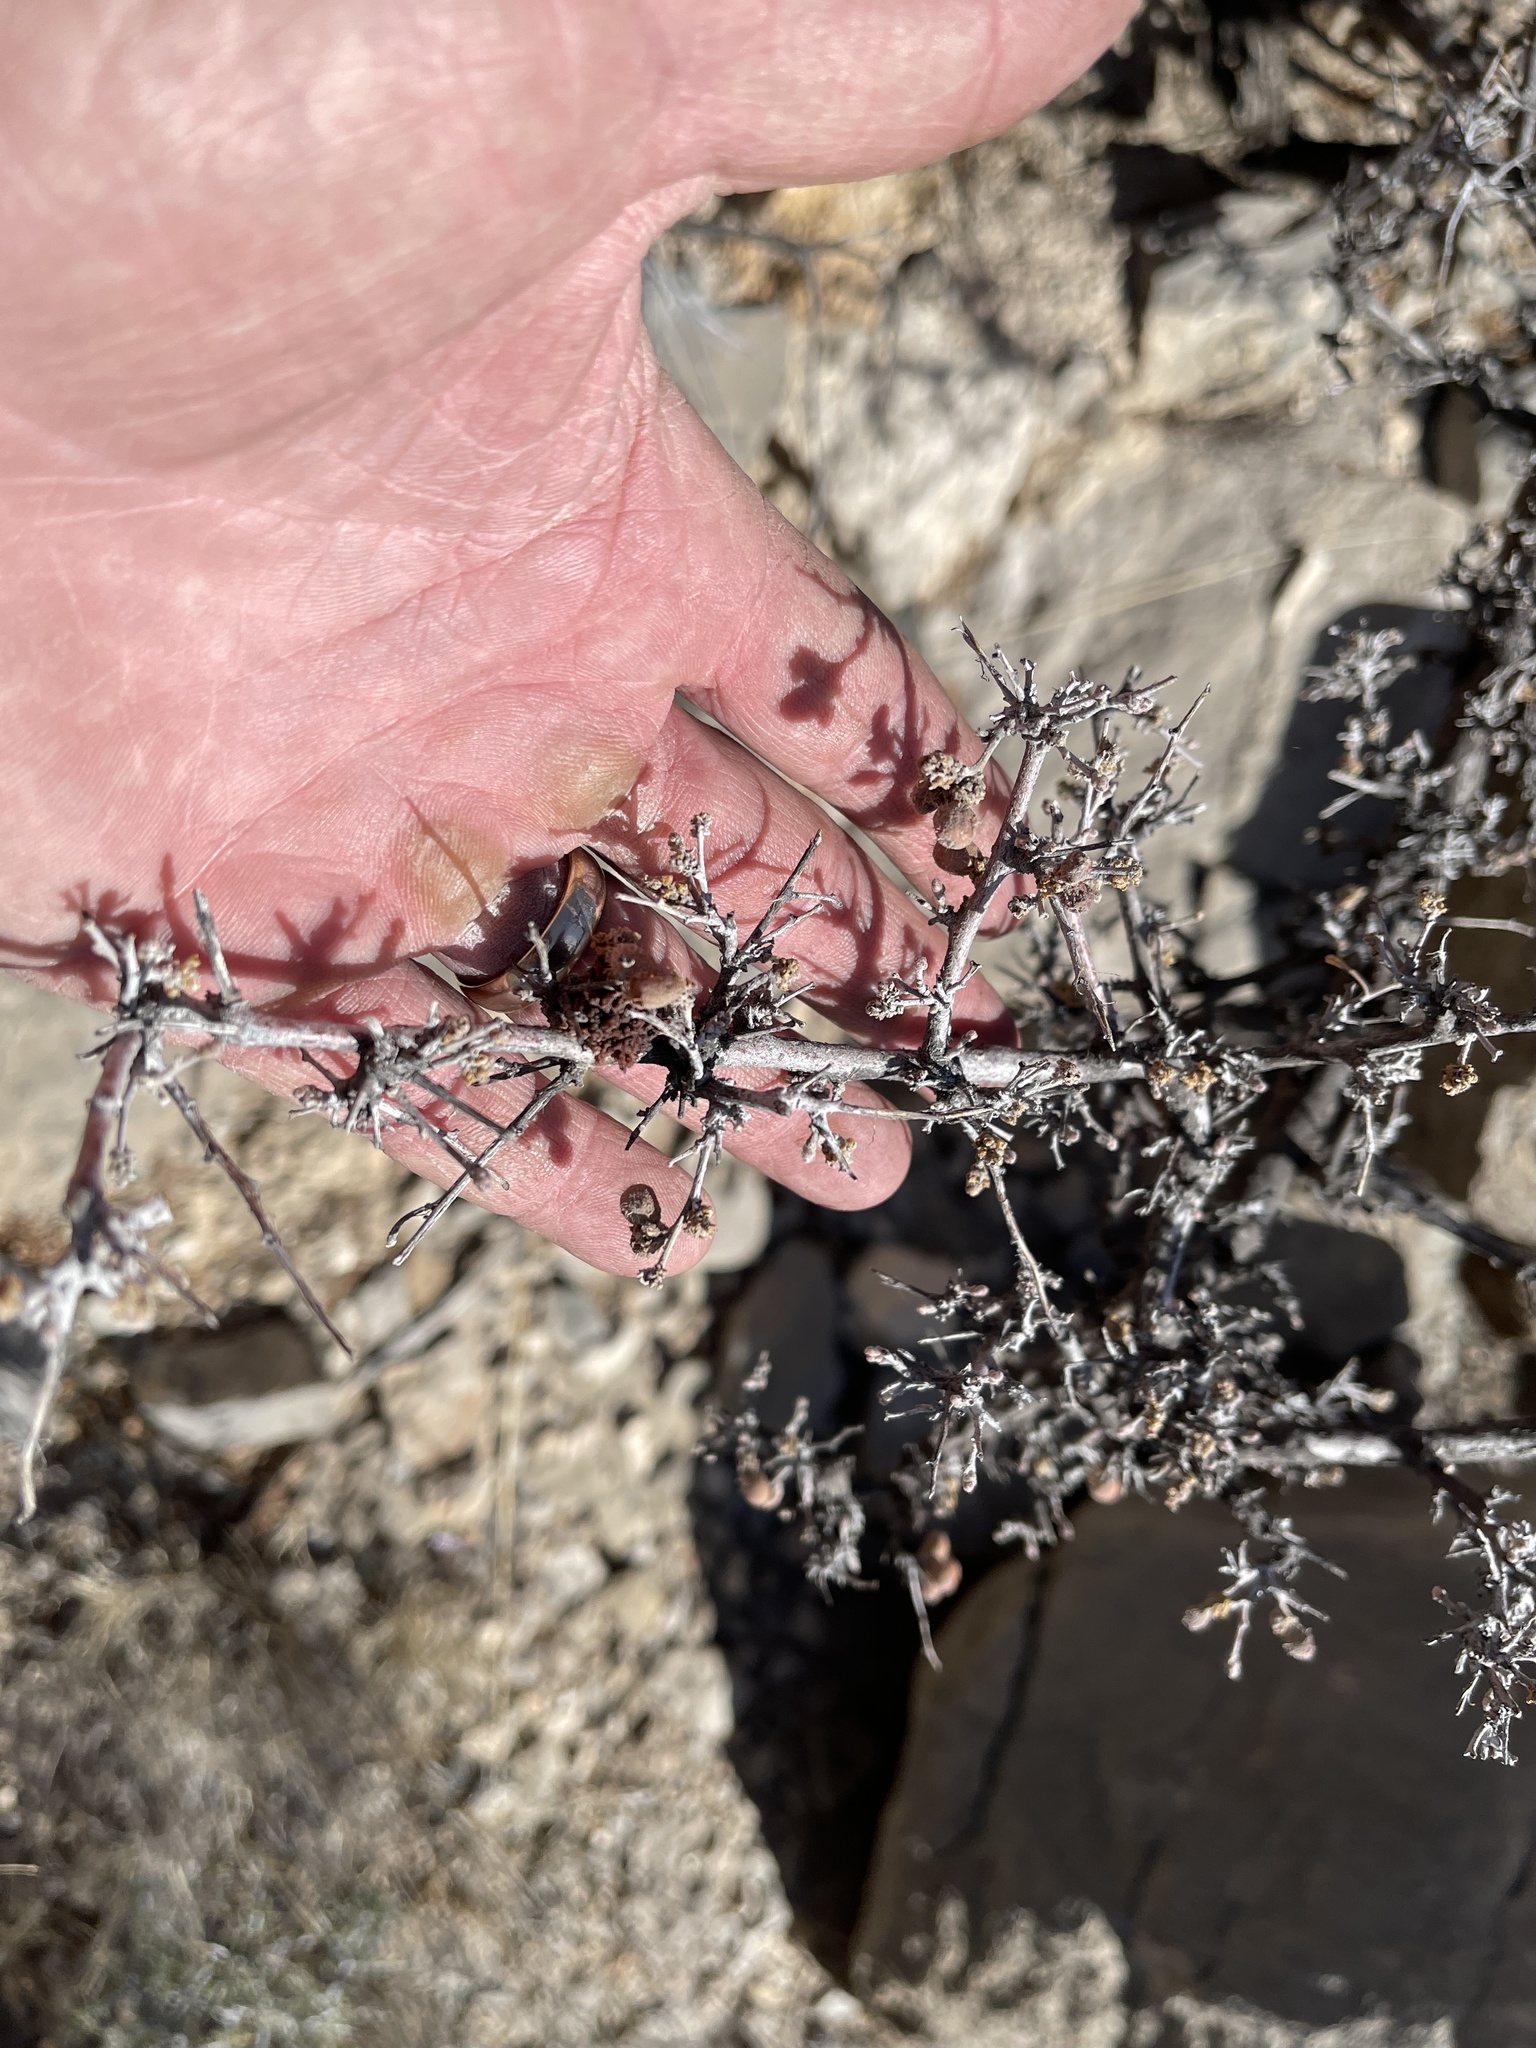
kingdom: Plantae
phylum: Tracheophyta
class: Magnoliopsida
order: Sapindales
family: Anacardiaceae
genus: Rhus
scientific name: Rhus microphylla
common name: Desert sumac
